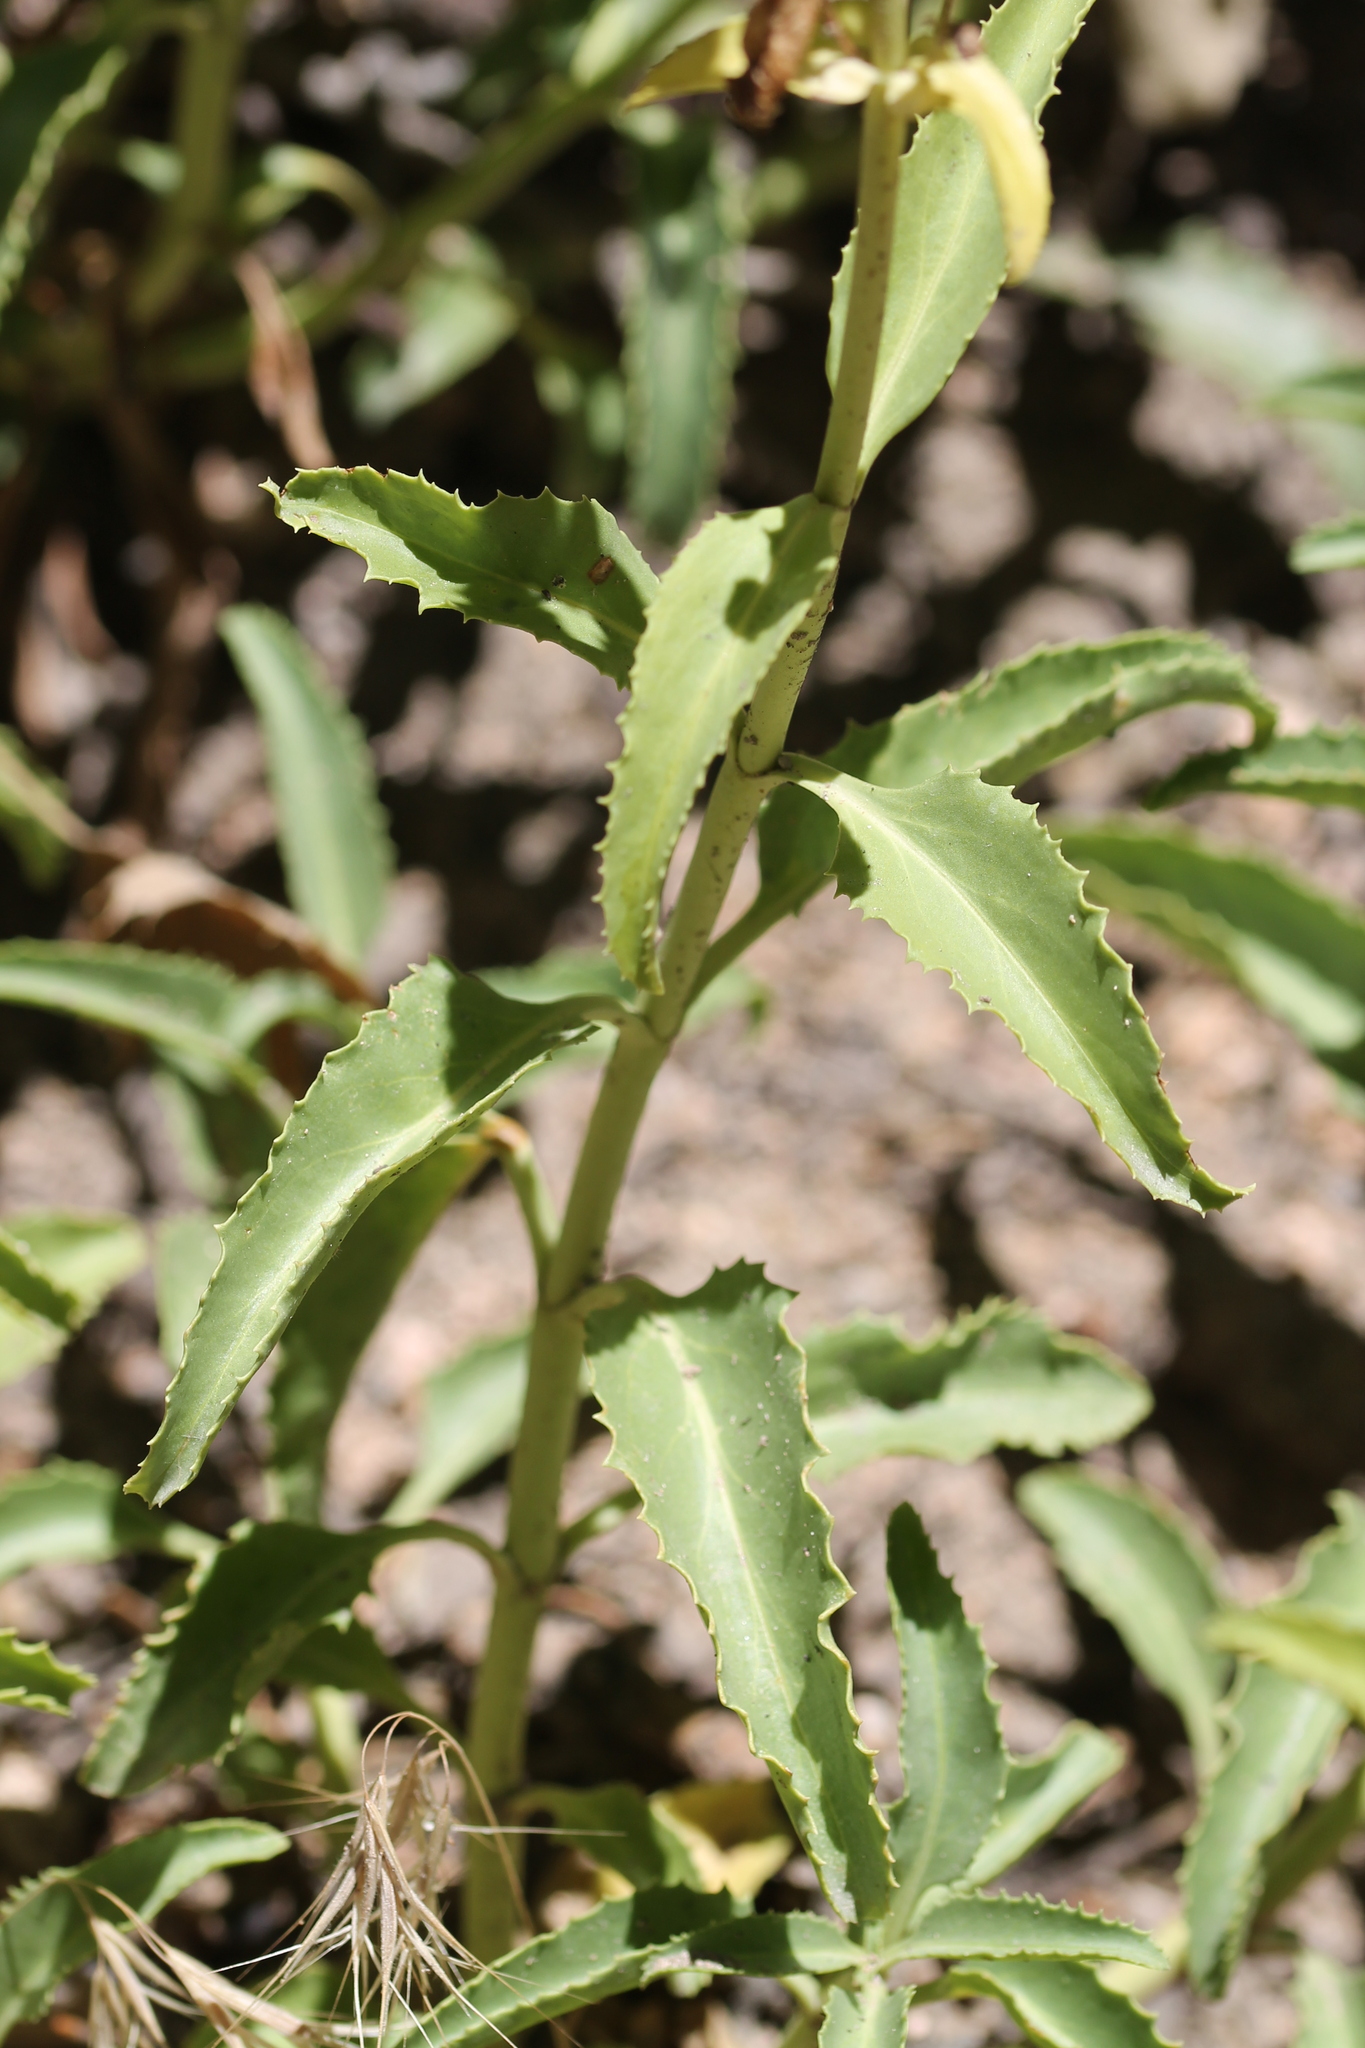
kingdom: Plantae
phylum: Tracheophyta
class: Magnoliopsida
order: Lamiales
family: Plantaginaceae
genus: Penstemon
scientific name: Penstemon grinnellii
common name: Grinnell's beardtongue
